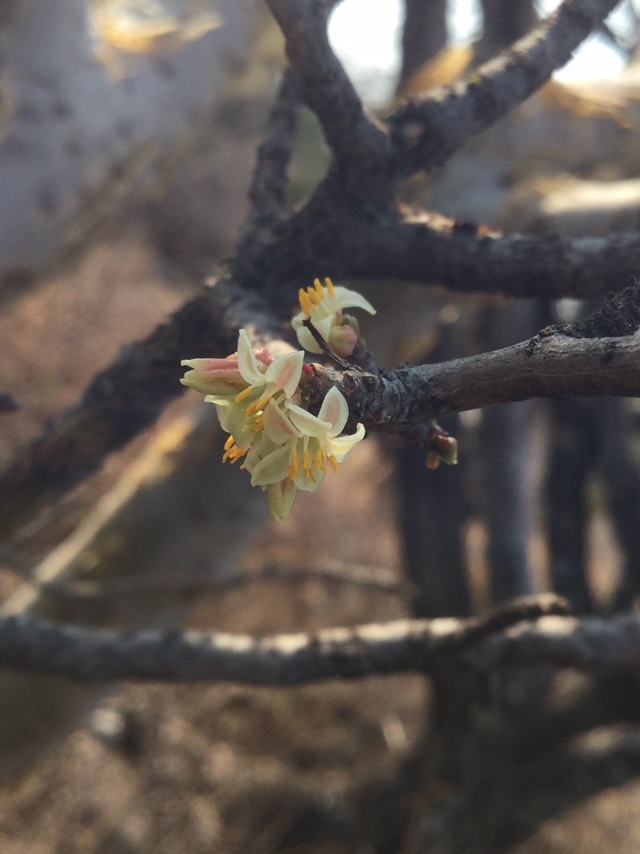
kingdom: Plantae
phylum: Tracheophyta
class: Magnoliopsida
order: Sapindales
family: Burseraceae
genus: Bursera
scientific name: Bursera fagaroides
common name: Elephant tree
